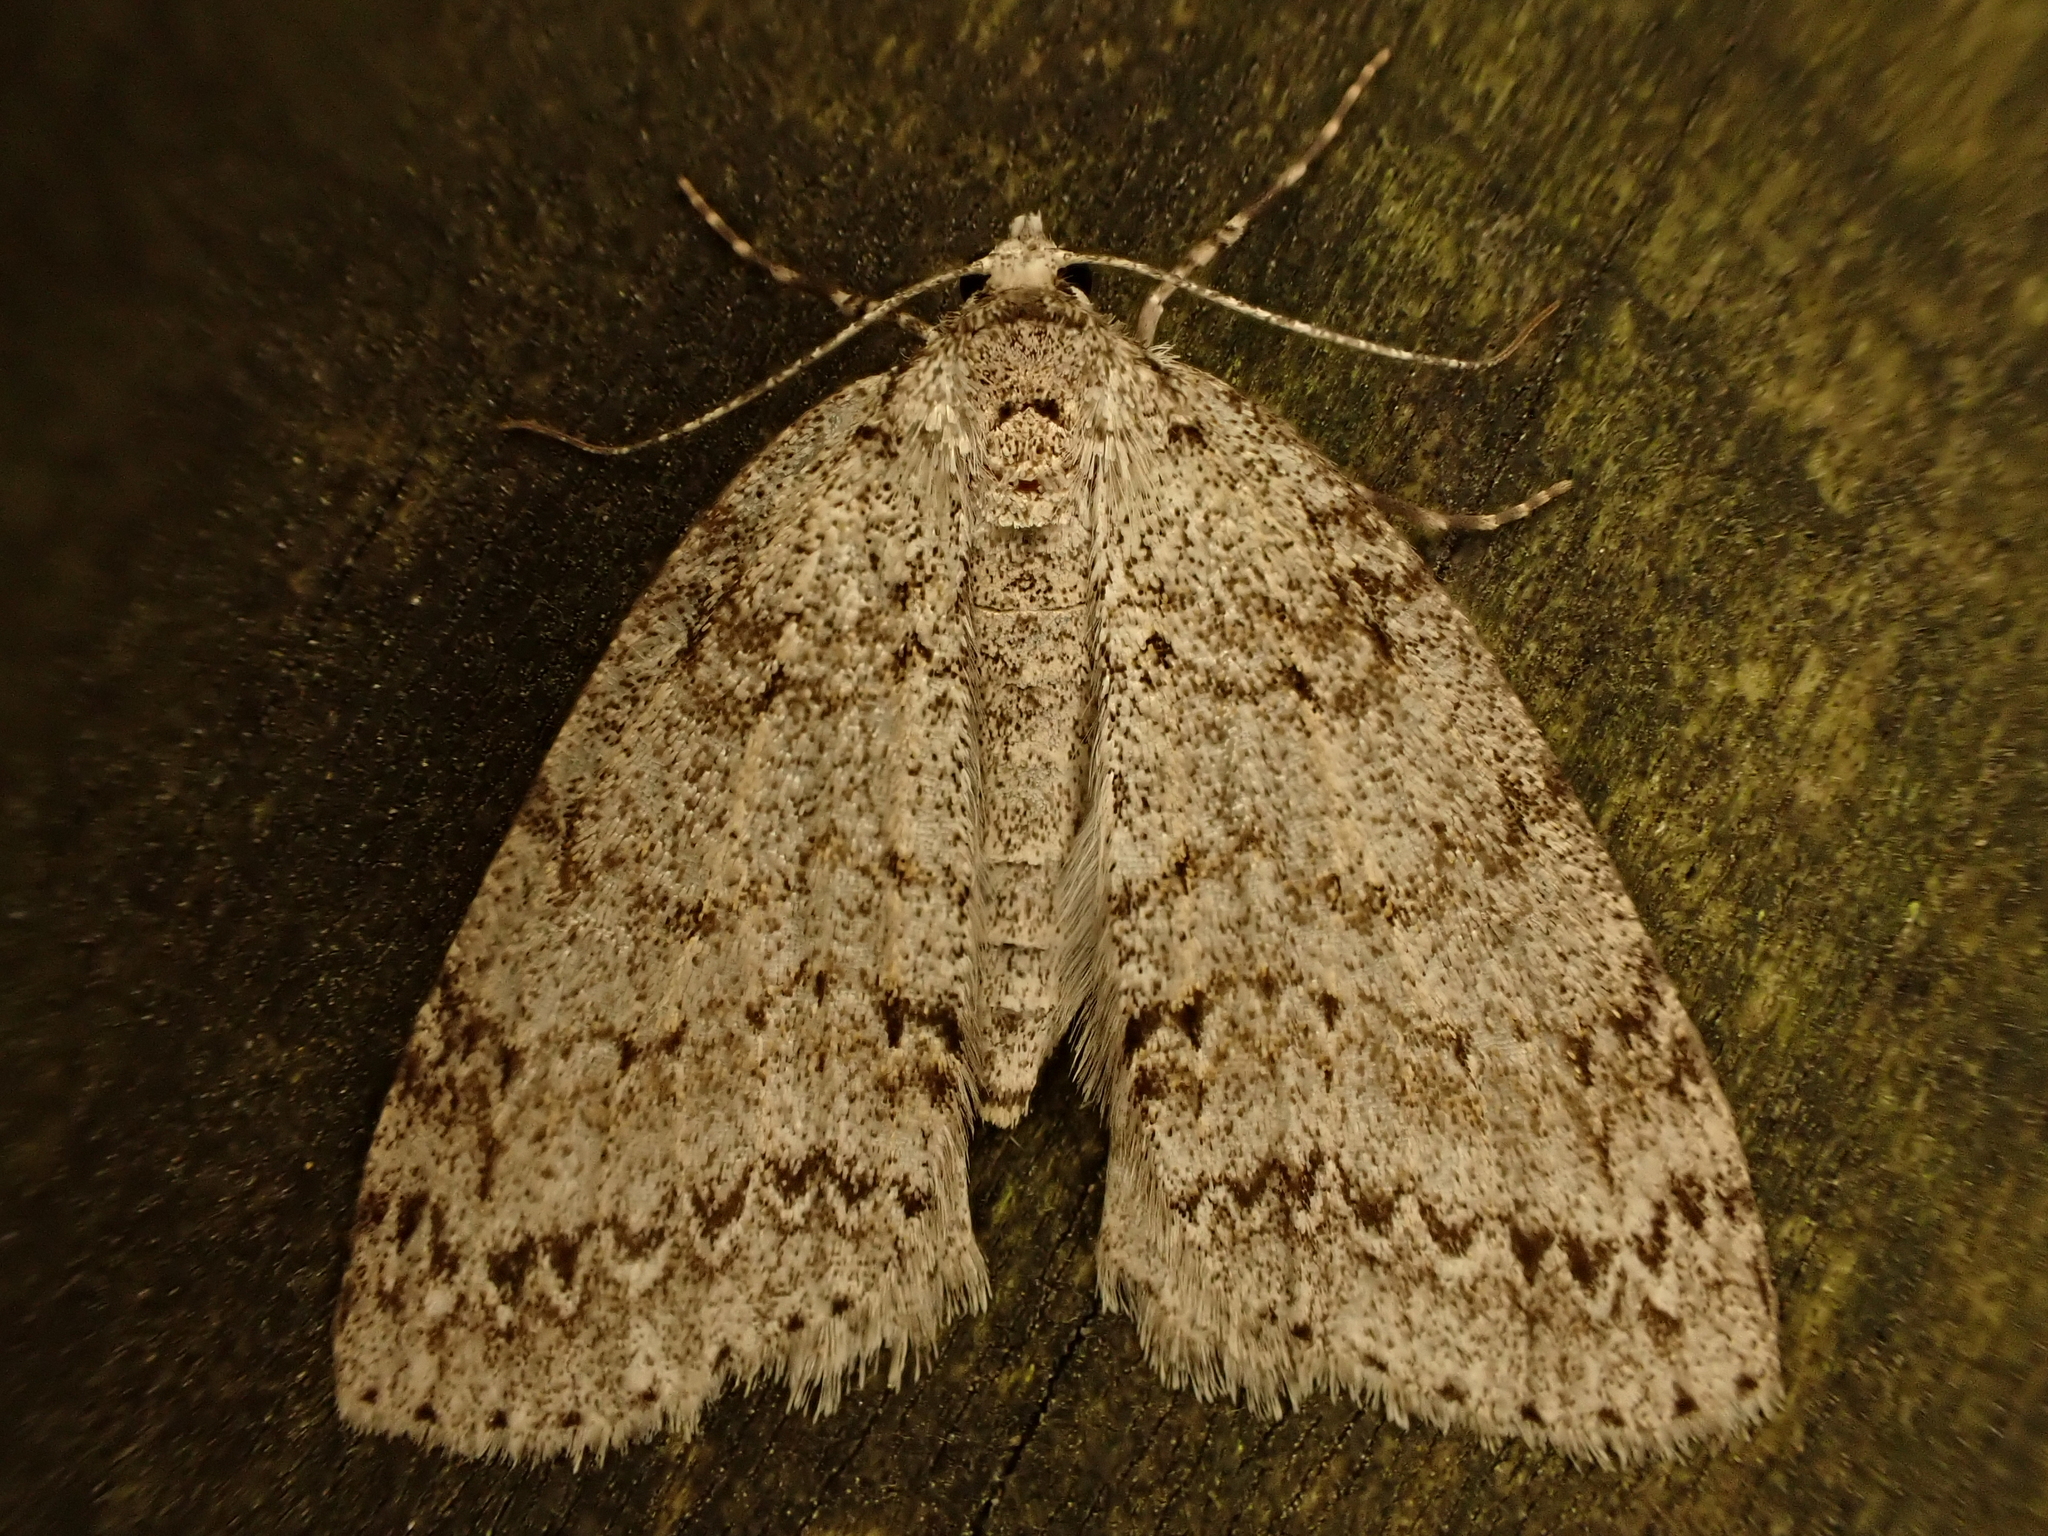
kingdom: Animalia
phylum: Arthropoda
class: Insecta
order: Lepidoptera
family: Geometridae
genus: Pseudocoremia
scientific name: Pseudocoremia fenerata
